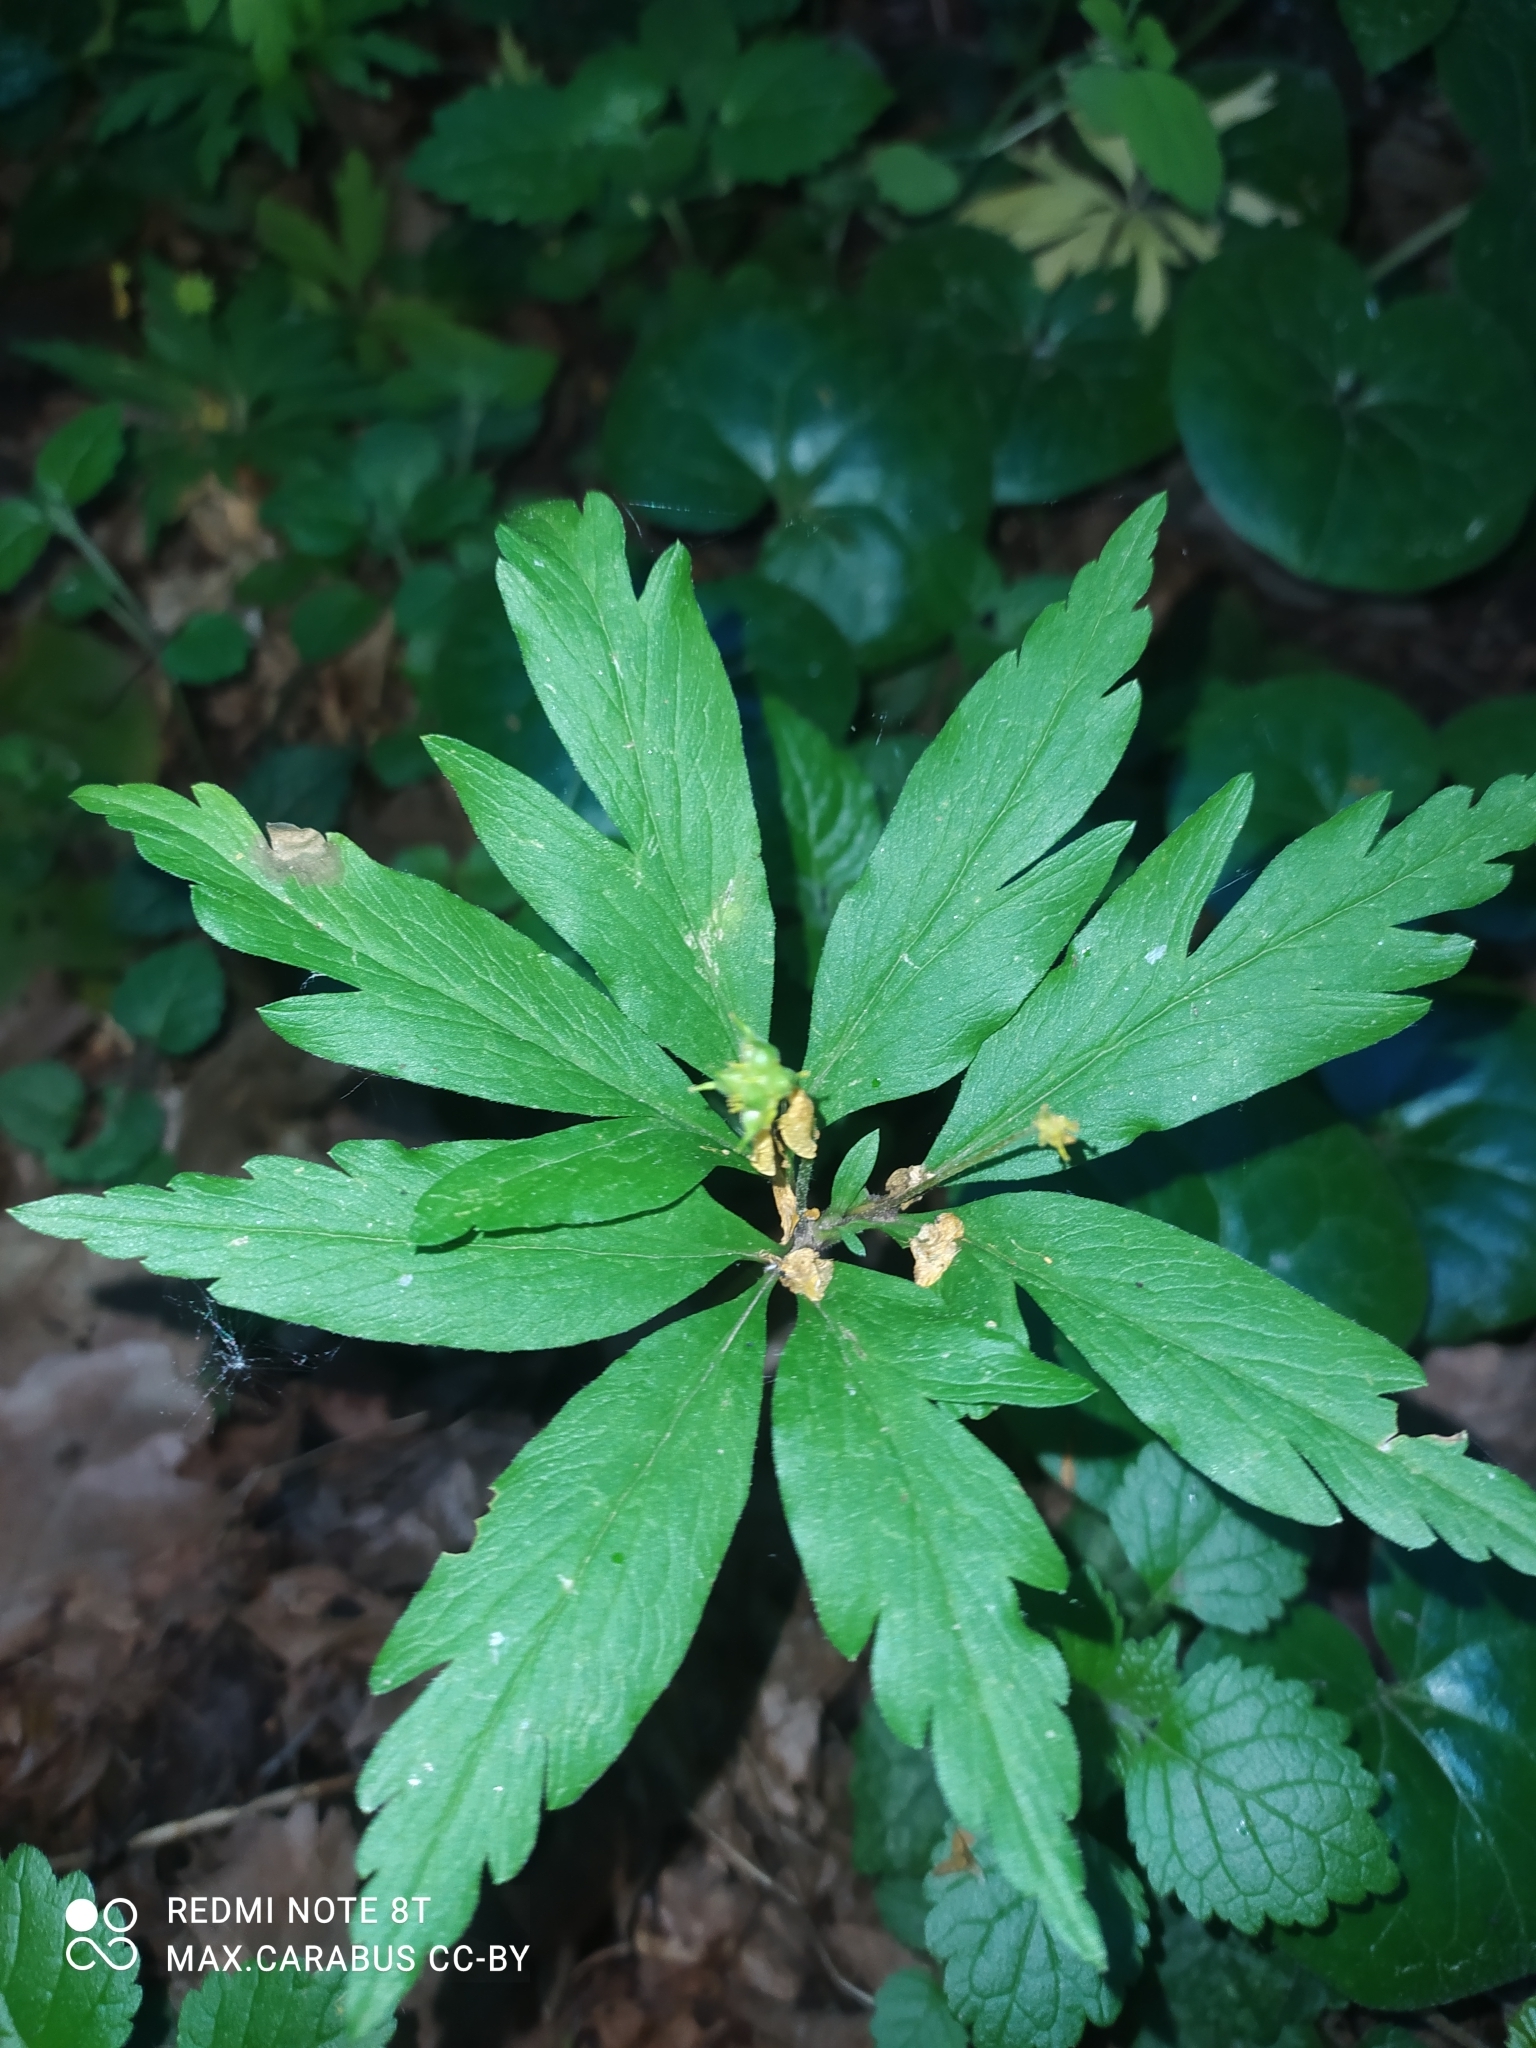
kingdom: Plantae
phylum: Tracheophyta
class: Magnoliopsida
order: Ranunculales
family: Ranunculaceae
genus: Anemone
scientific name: Anemone ranunculoides
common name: Yellow anemone
